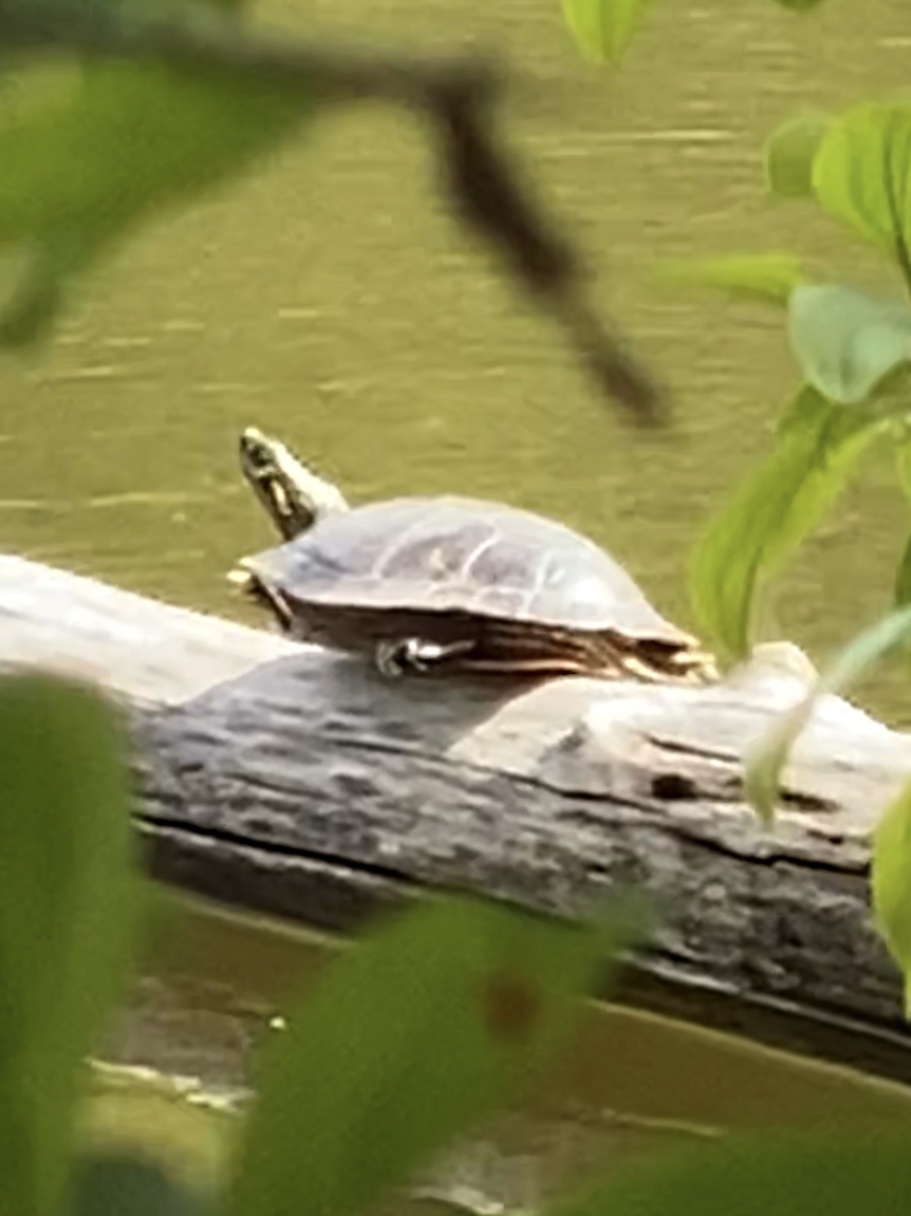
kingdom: Animalia
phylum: Chordata
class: Testudines
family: Emydidae
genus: Chrysemys
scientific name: Chrysemys picta
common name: Painted turtle
